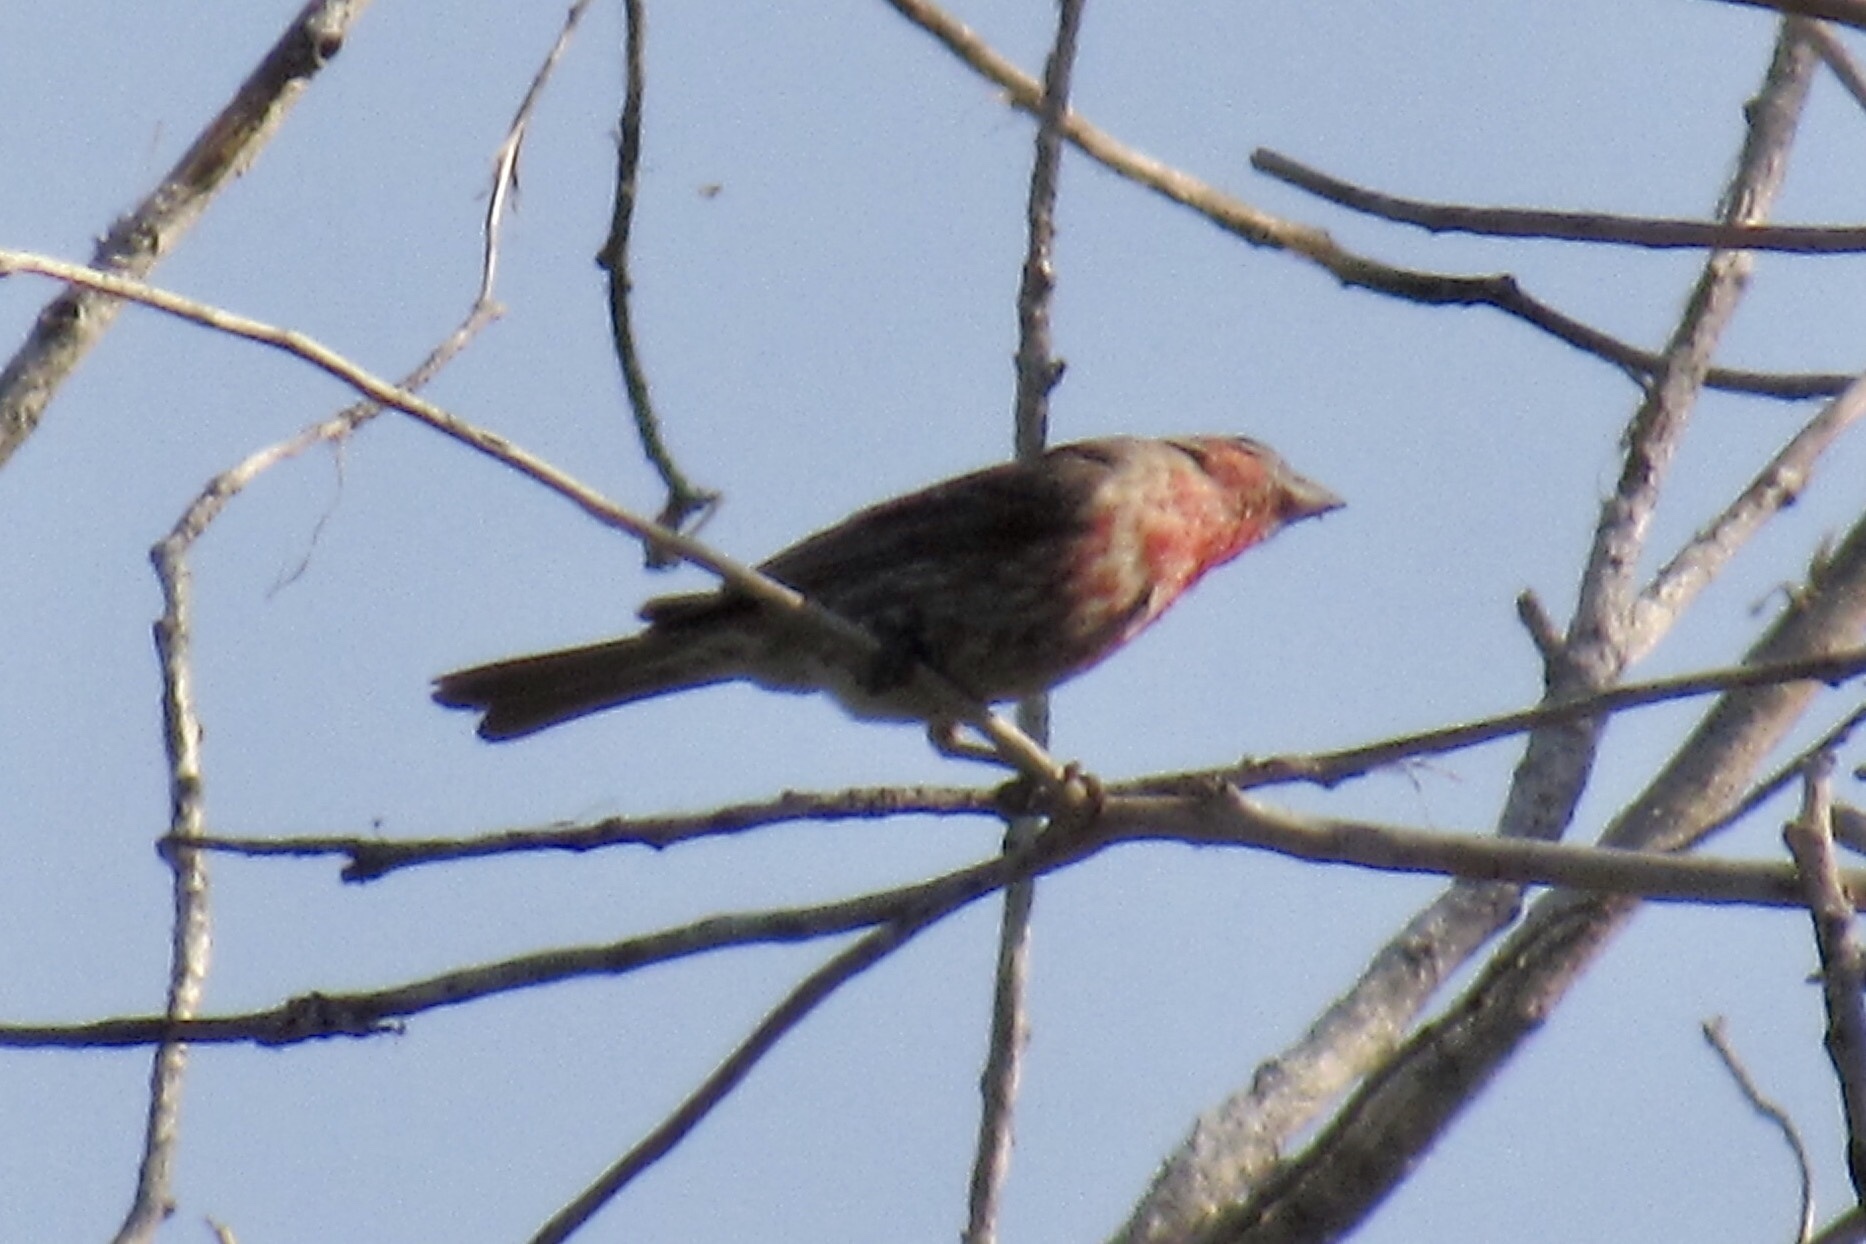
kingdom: Animalia
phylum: Chordata
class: Aves
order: Passeriformes
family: Fringillidae
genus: Haemorhous
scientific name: Haemorhous mexicanus
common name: House finch
